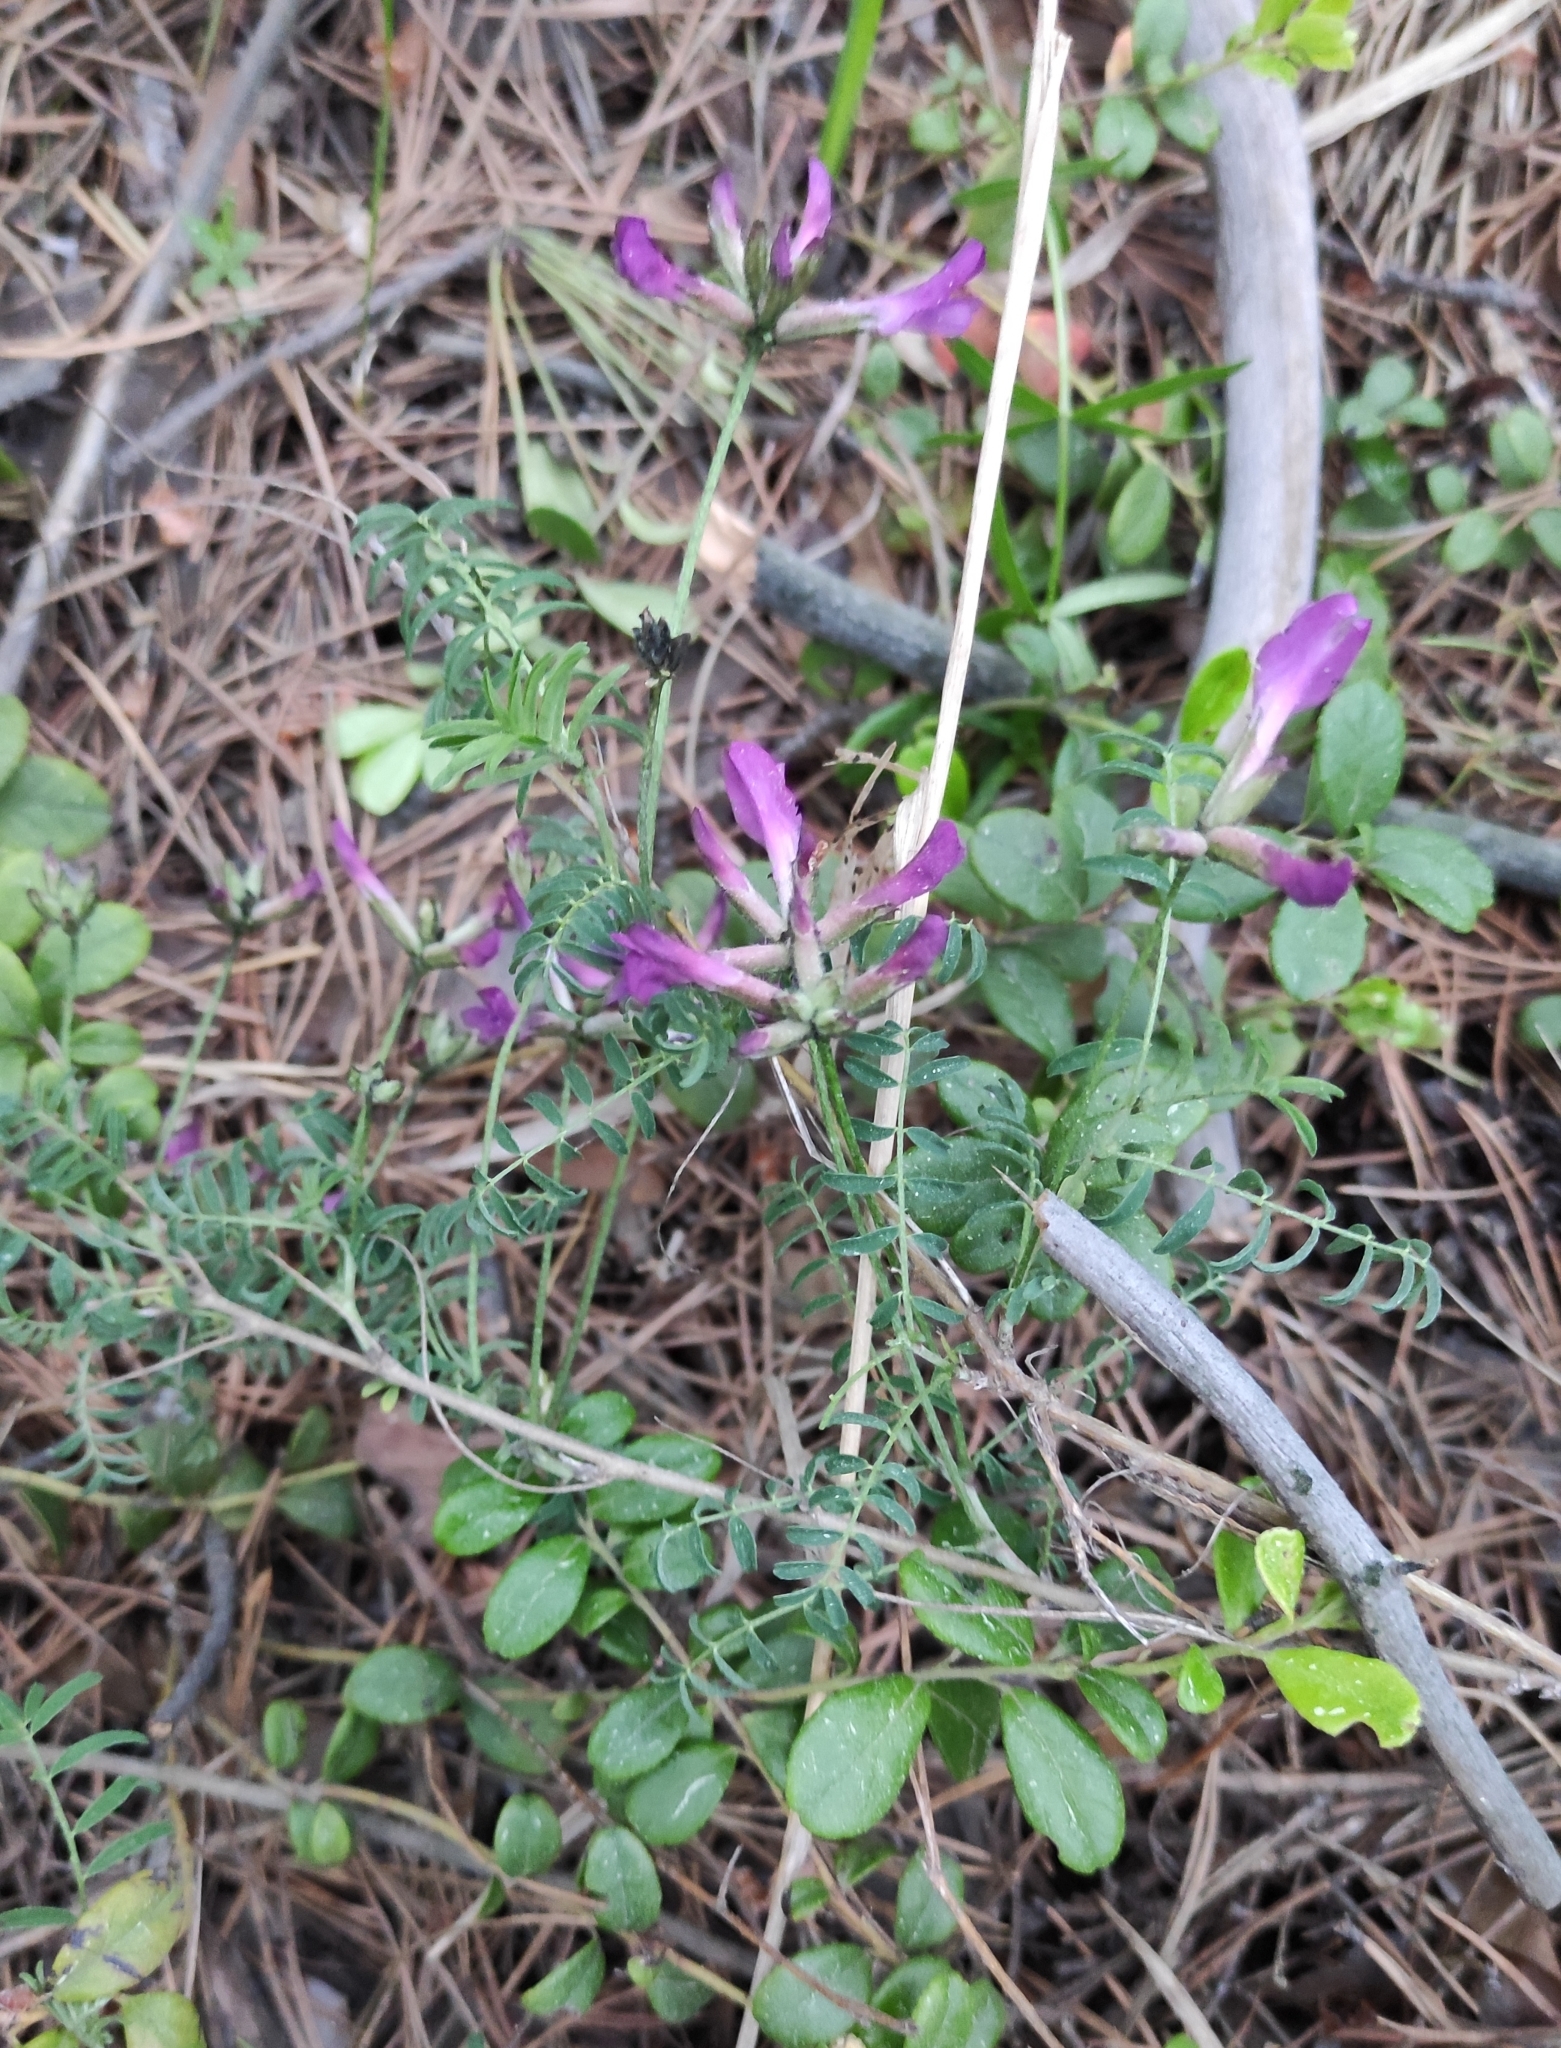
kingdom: Plantae
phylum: Tracheophyta
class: Magnoliopsida
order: Fabales
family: Fabaceae
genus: Astragalus
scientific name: Astragalus syriacus
